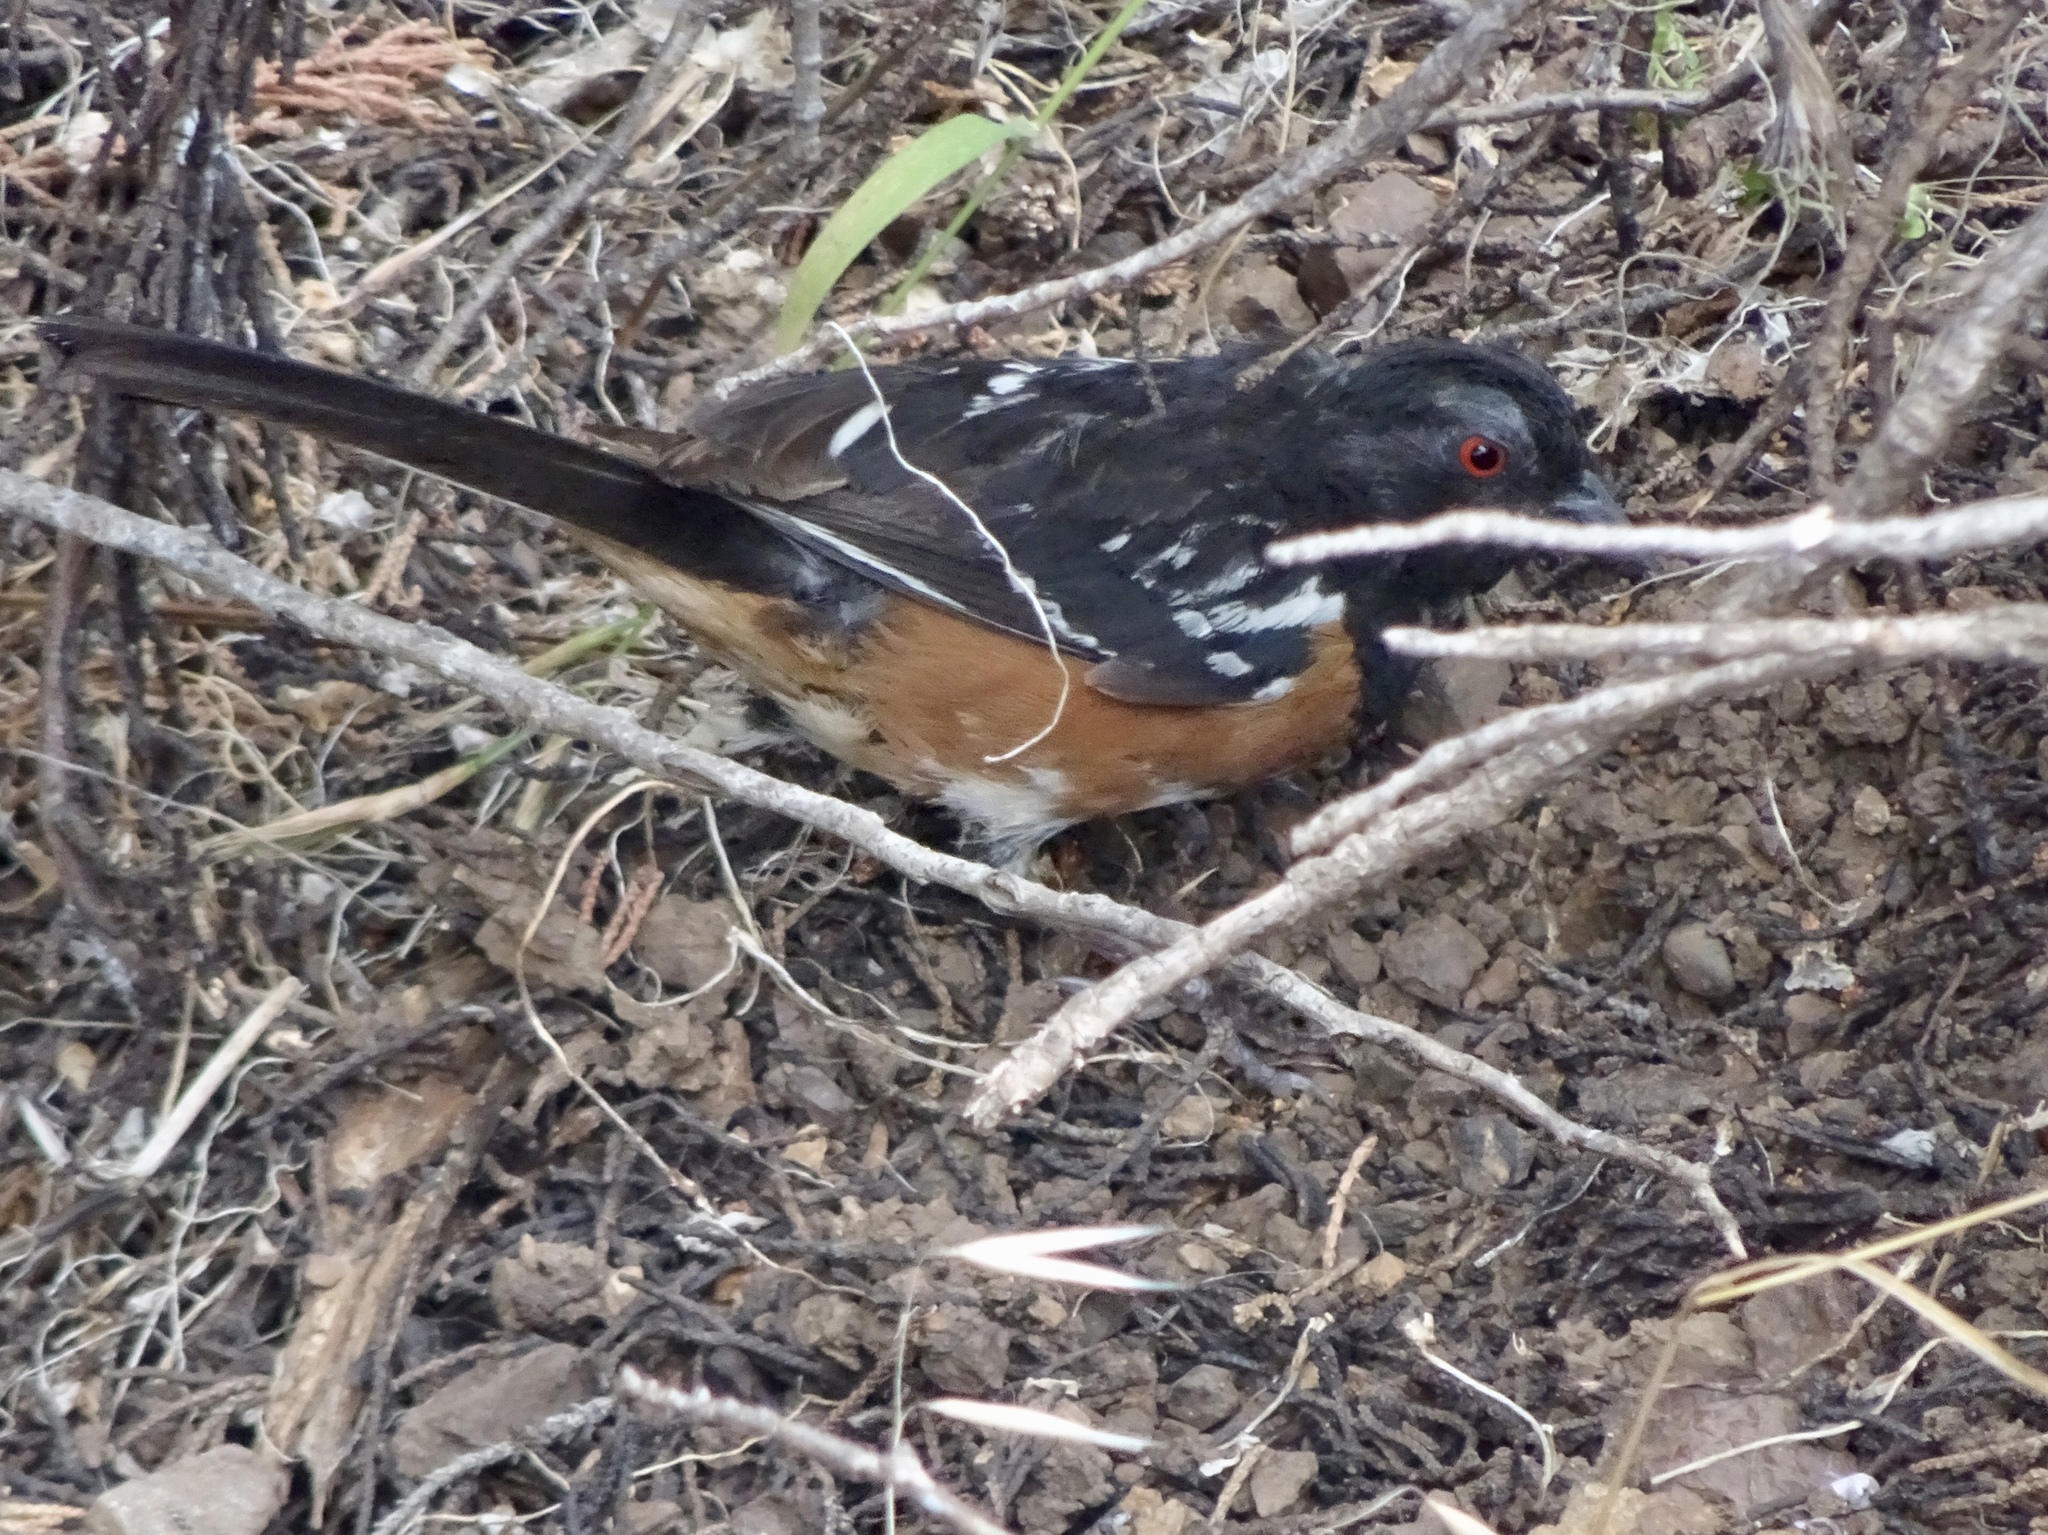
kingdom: Animalia
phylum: Chordata
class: Aves
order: Passeriformes
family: Passerellidae
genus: Pipilo
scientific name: Pipilo maculatus
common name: Spotted towhee
